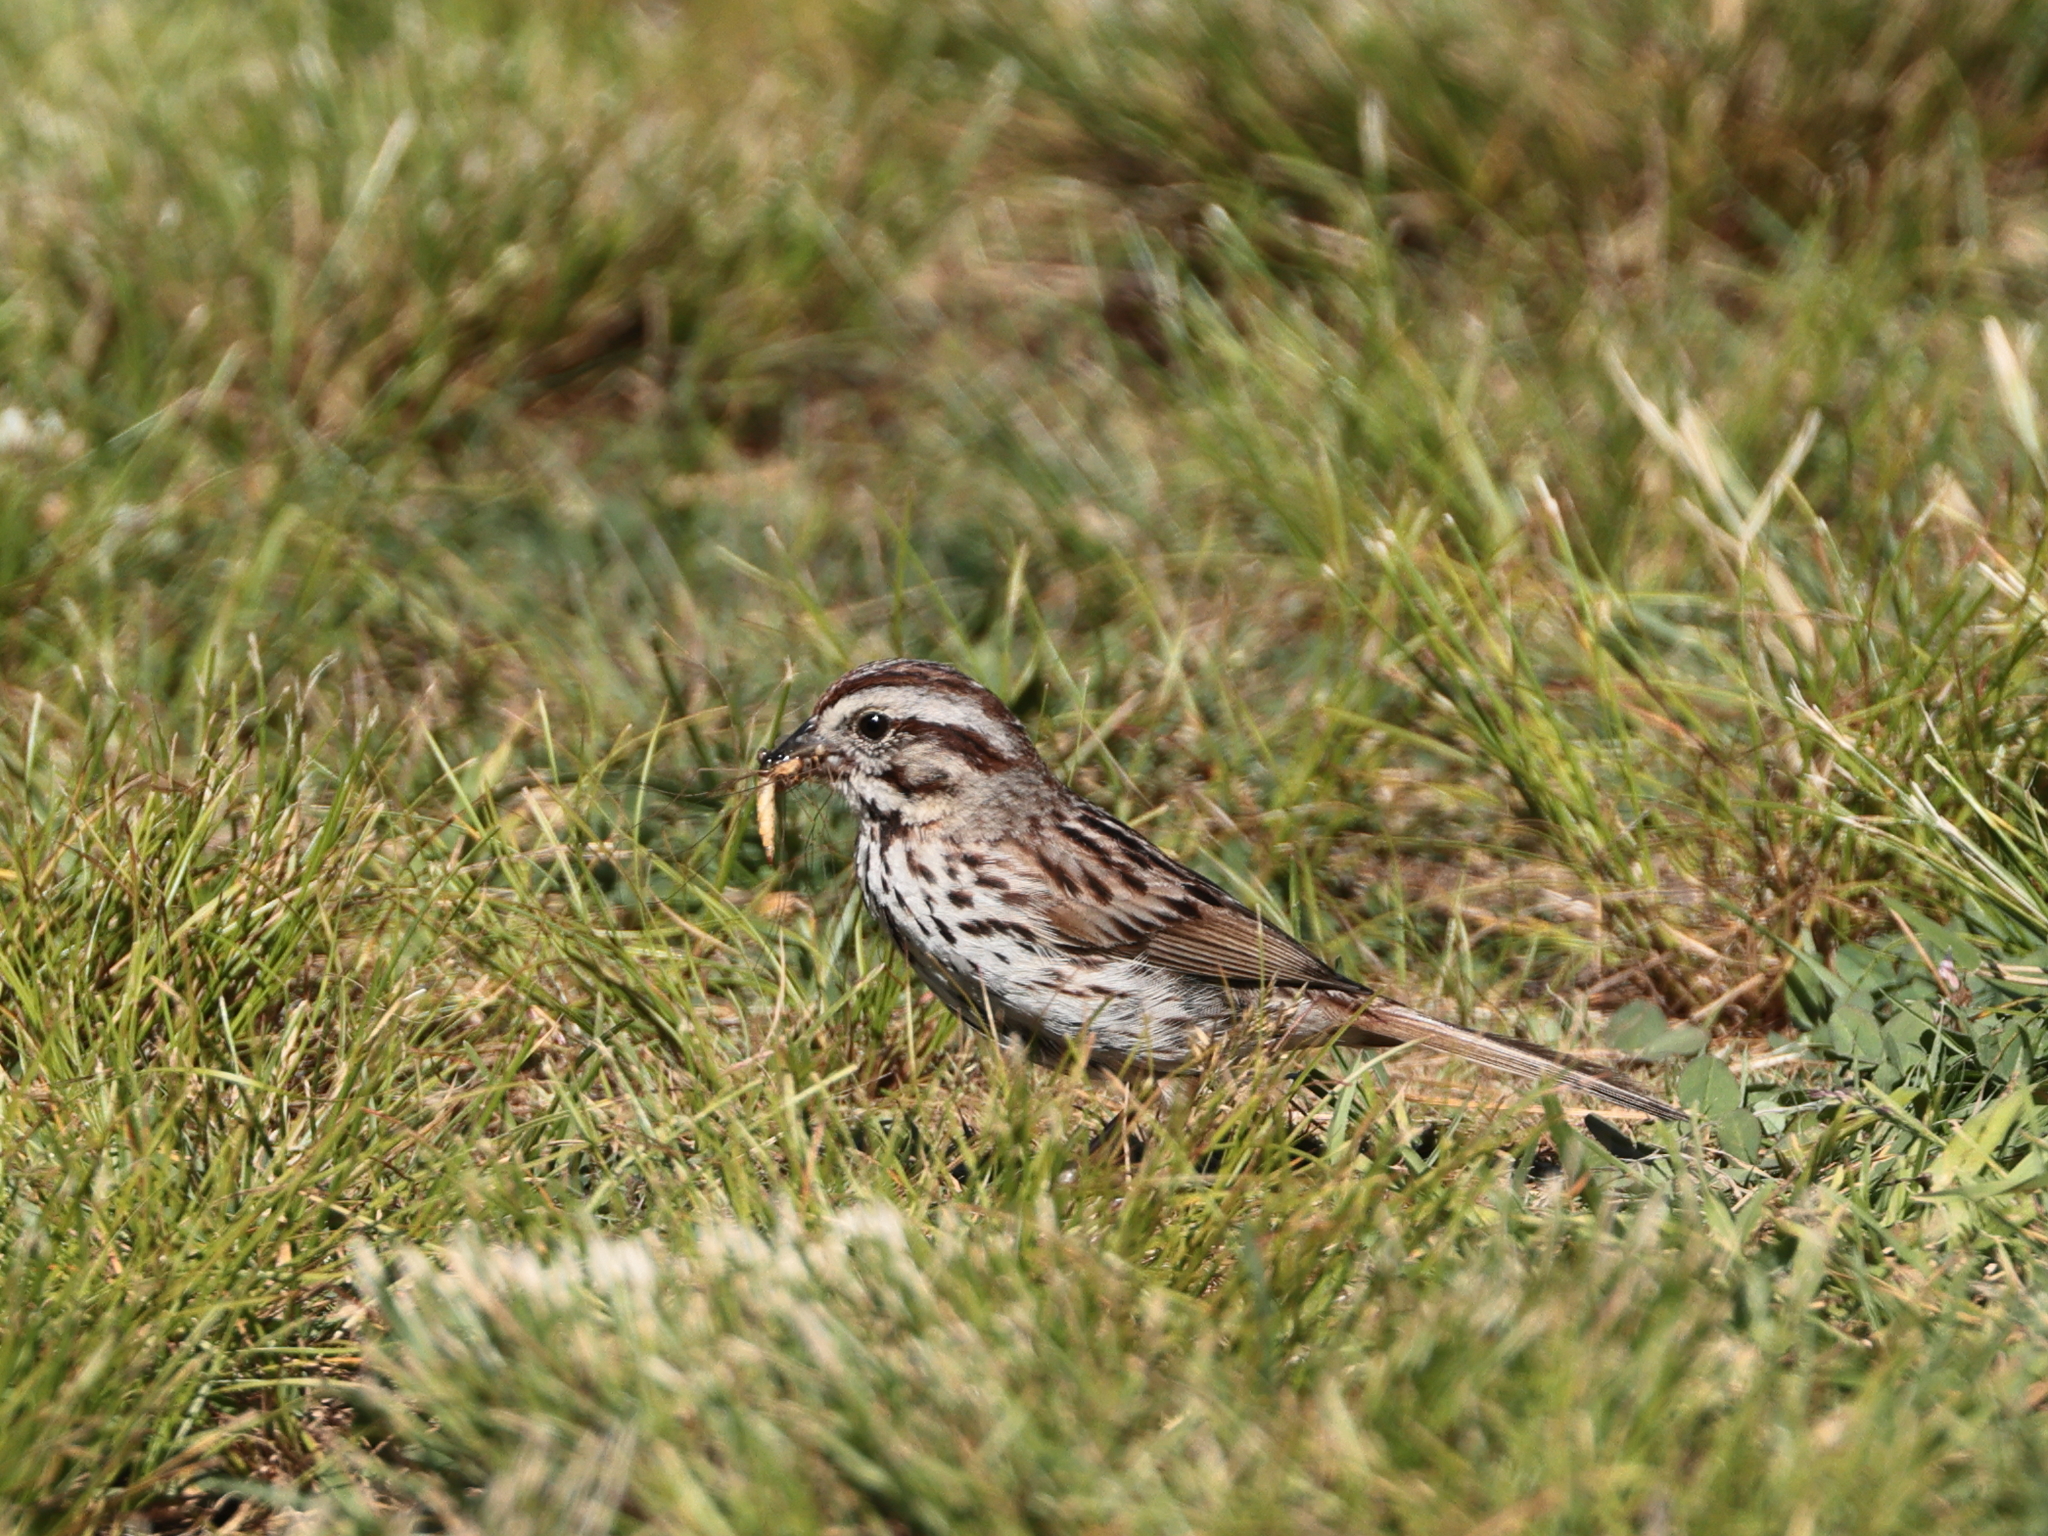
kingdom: Animalia
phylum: Chordata
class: Aves
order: Passeriformes
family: Passerellidae
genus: Melospiza
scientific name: Melospiza melodia
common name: Song sparrow
